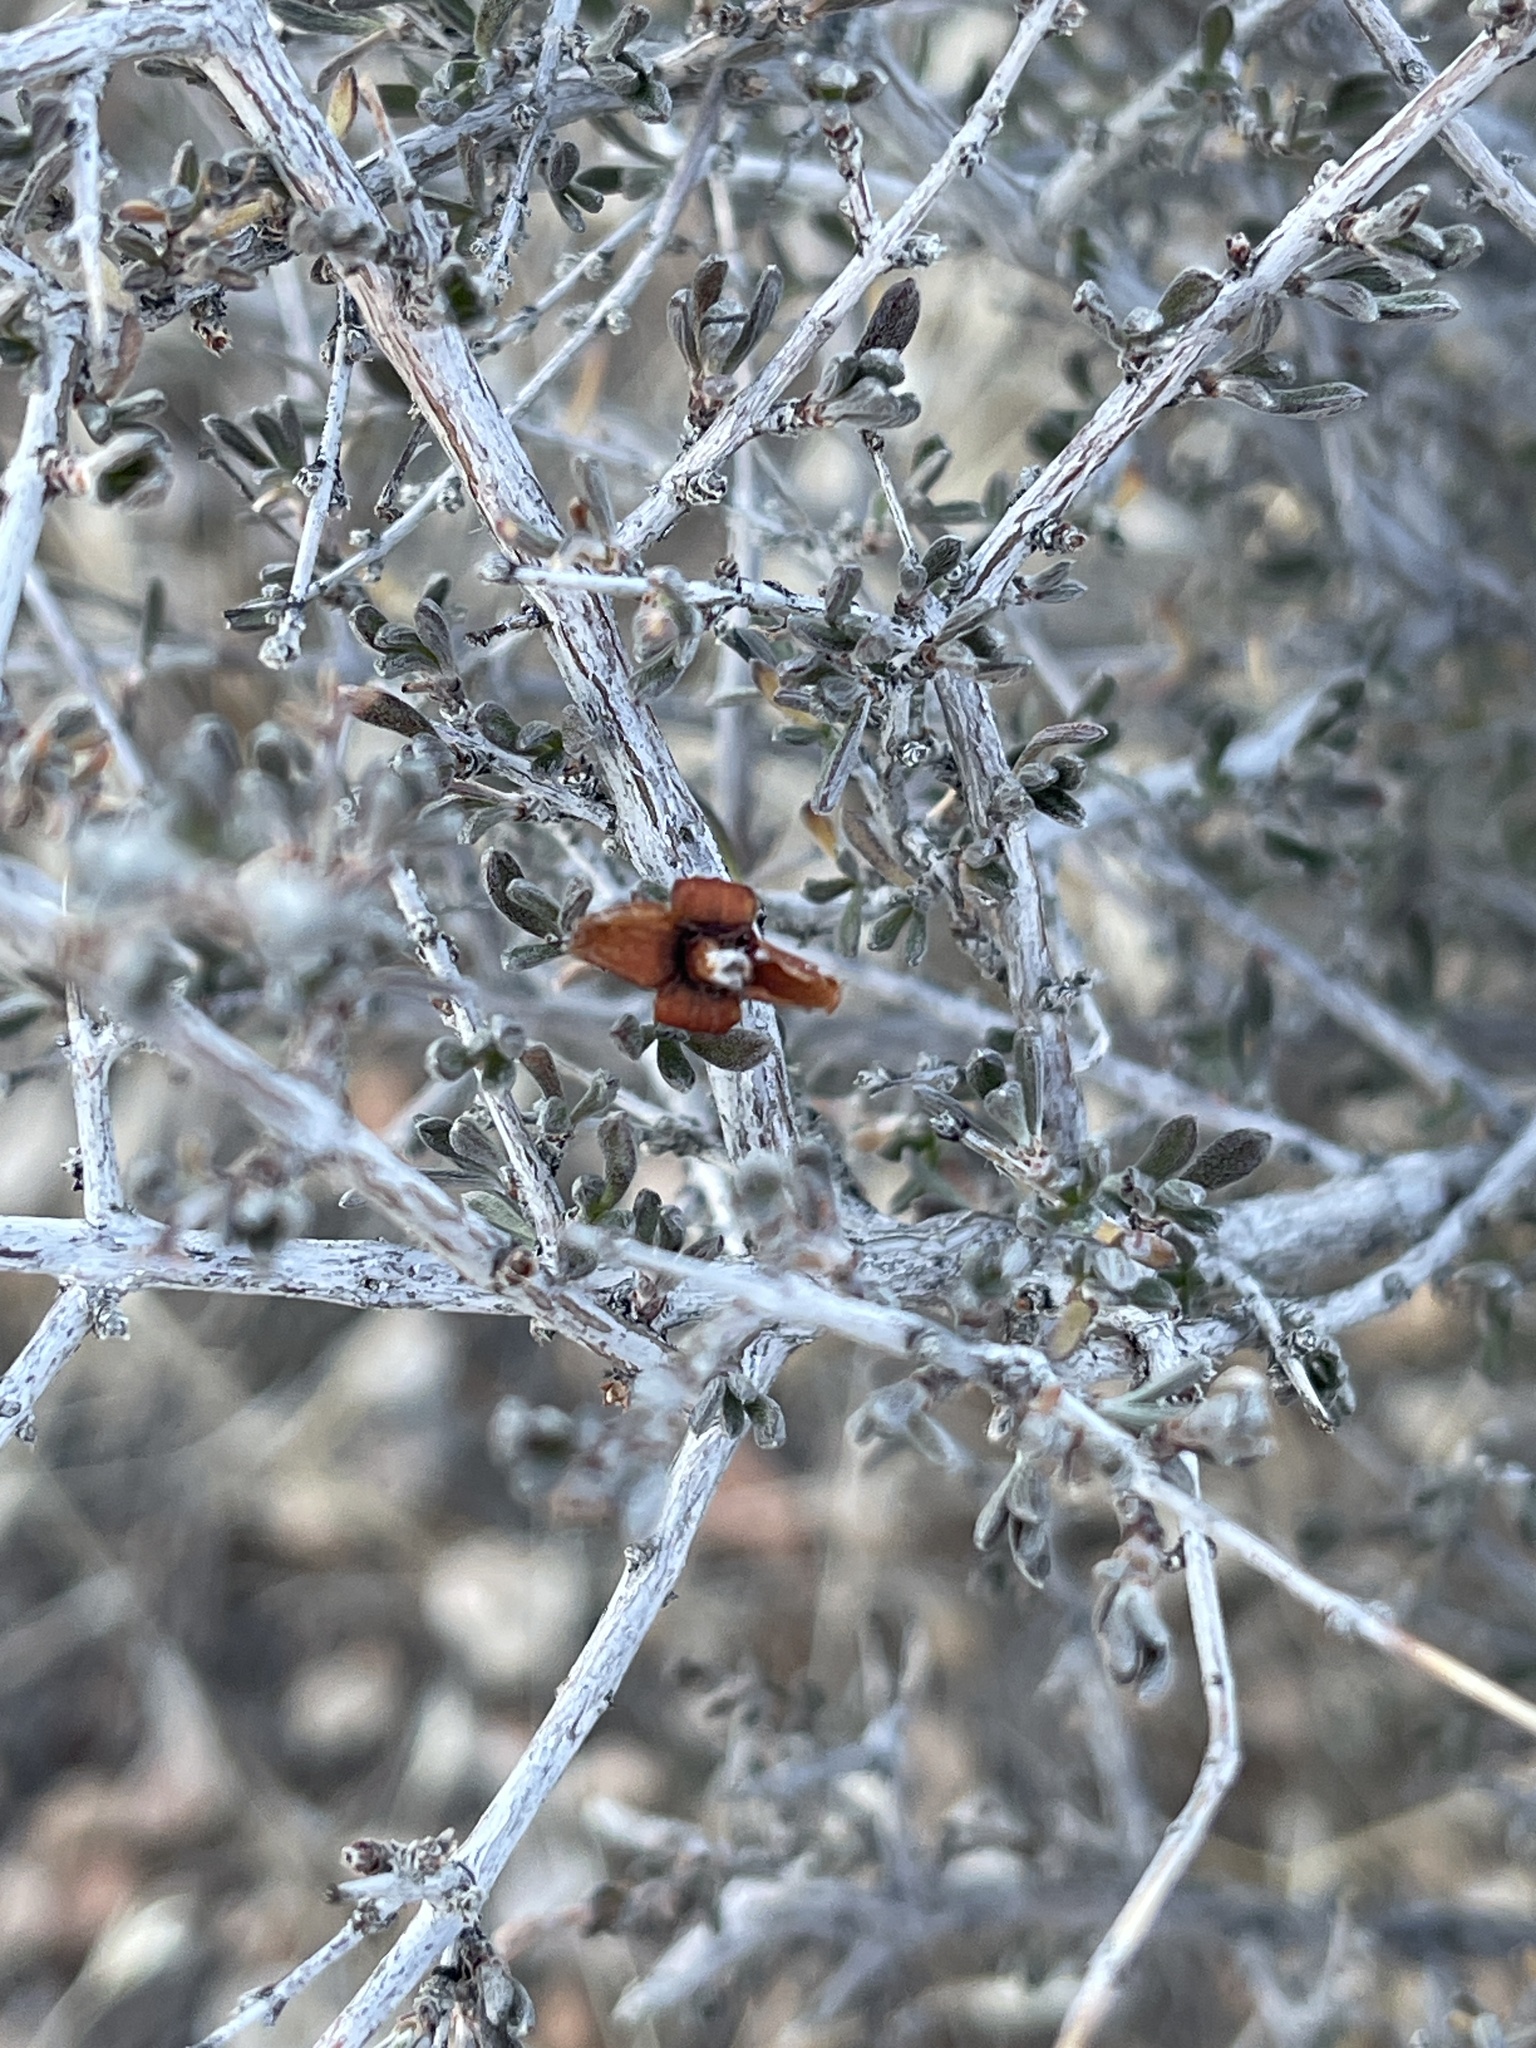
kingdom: Plantae
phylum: Tracheophyta
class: Magnoliopsida
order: Rosales
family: Rosaceae
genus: Coleogyne
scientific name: Coleogyne ramosissima
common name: Blackbrush
